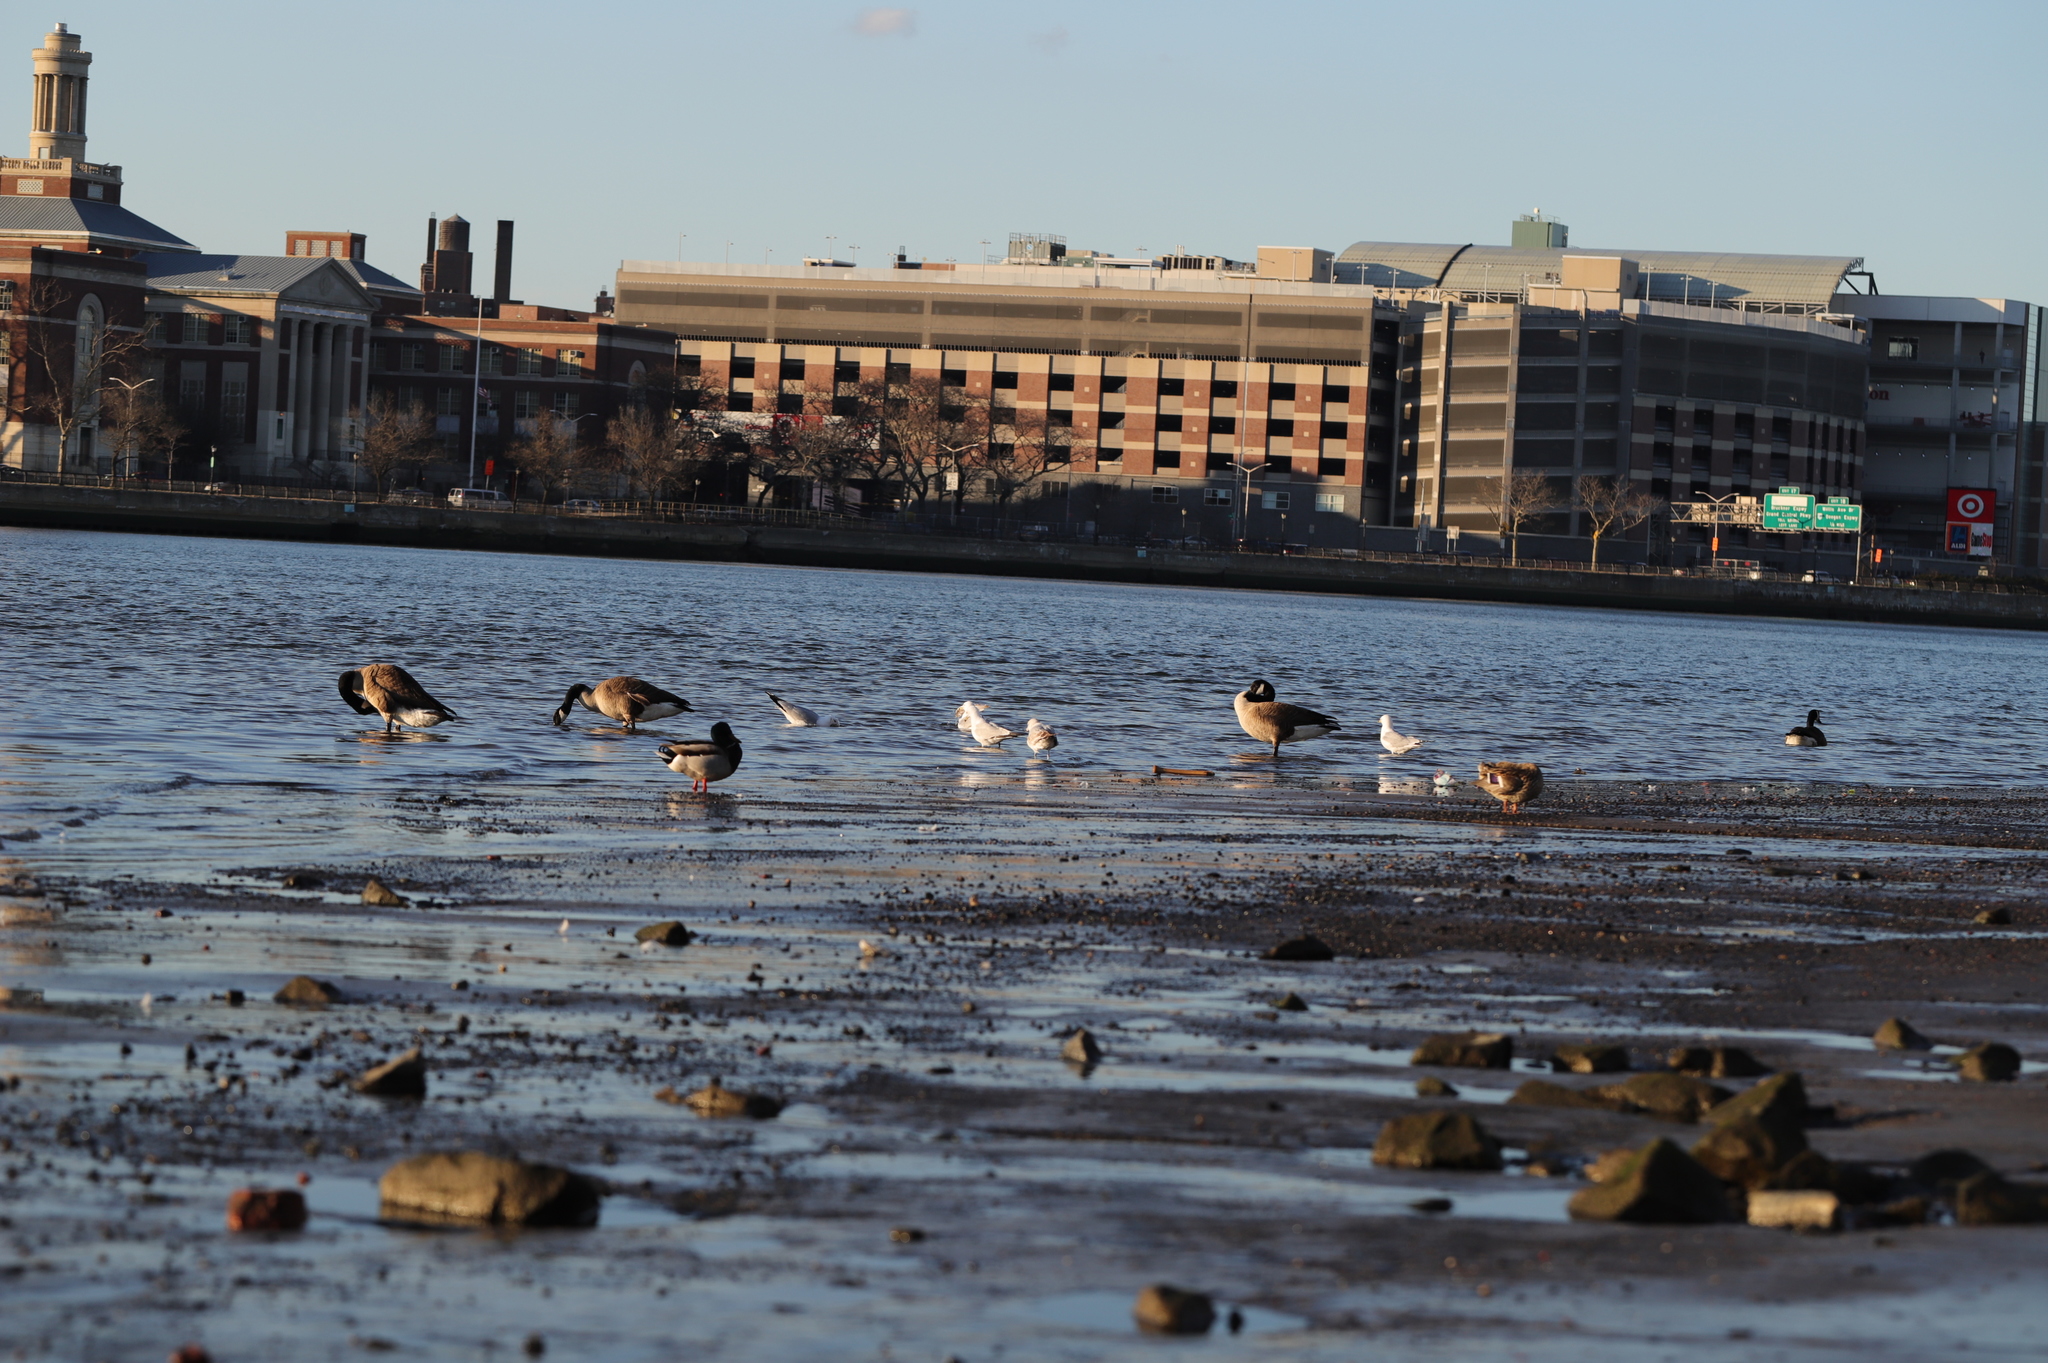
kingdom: Animalia
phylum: Chordata
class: Aves
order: Anseriformes
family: Anatidae
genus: Anas
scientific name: Anas platyrhynchos
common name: Mallard
